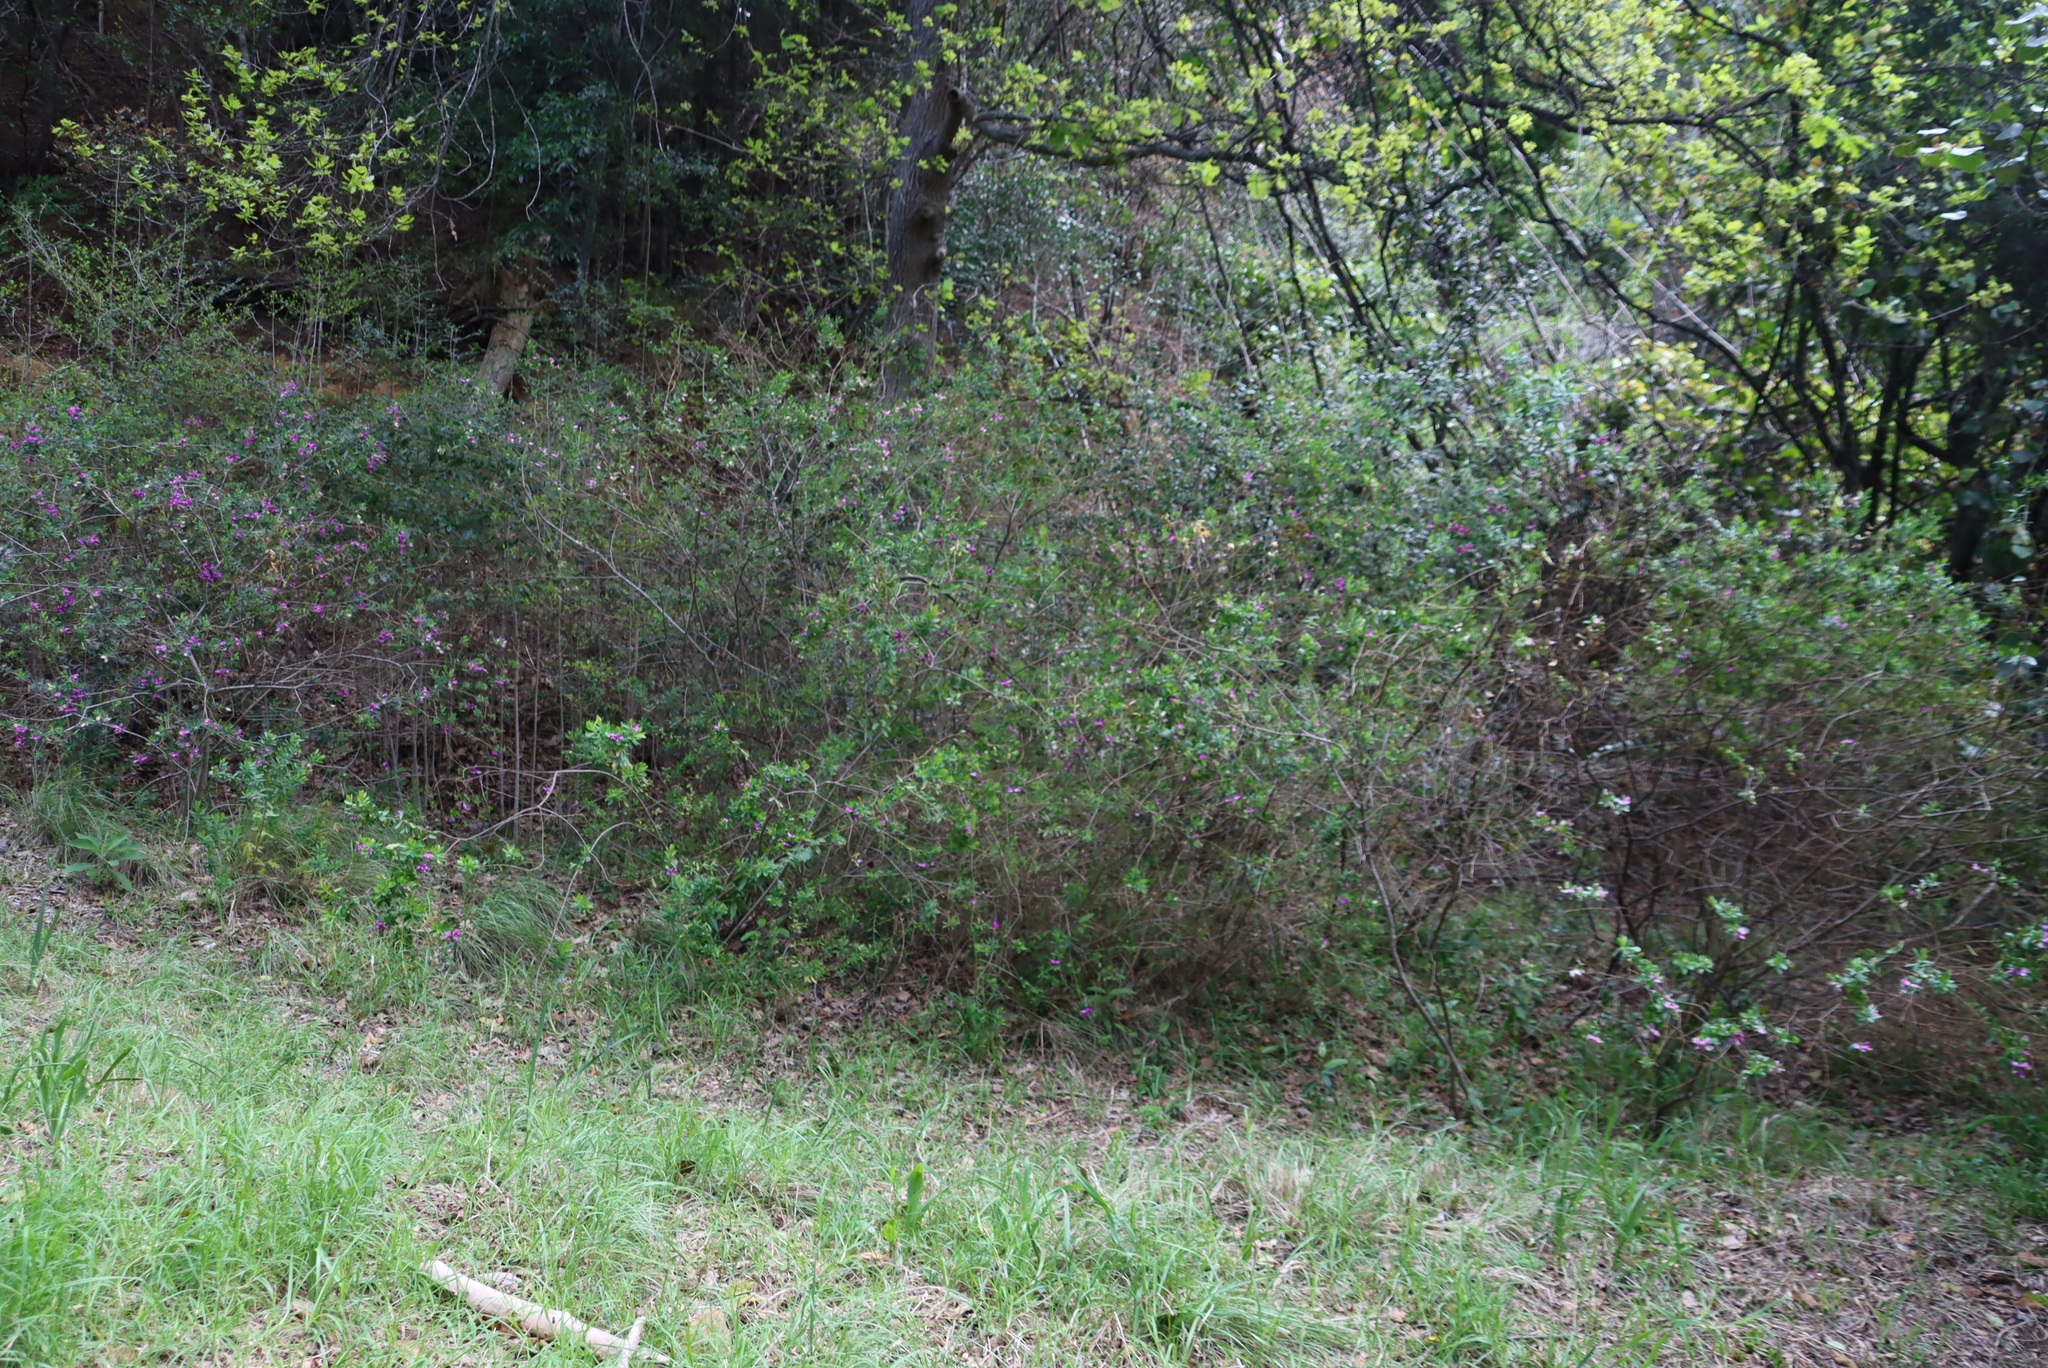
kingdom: Plantae
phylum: Tracheophyta
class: Magnoliopsida
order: Fabales
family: Polygalaceae
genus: Polygala
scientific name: Polygala myrtifolia
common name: Myrtle-leaf milkwort
